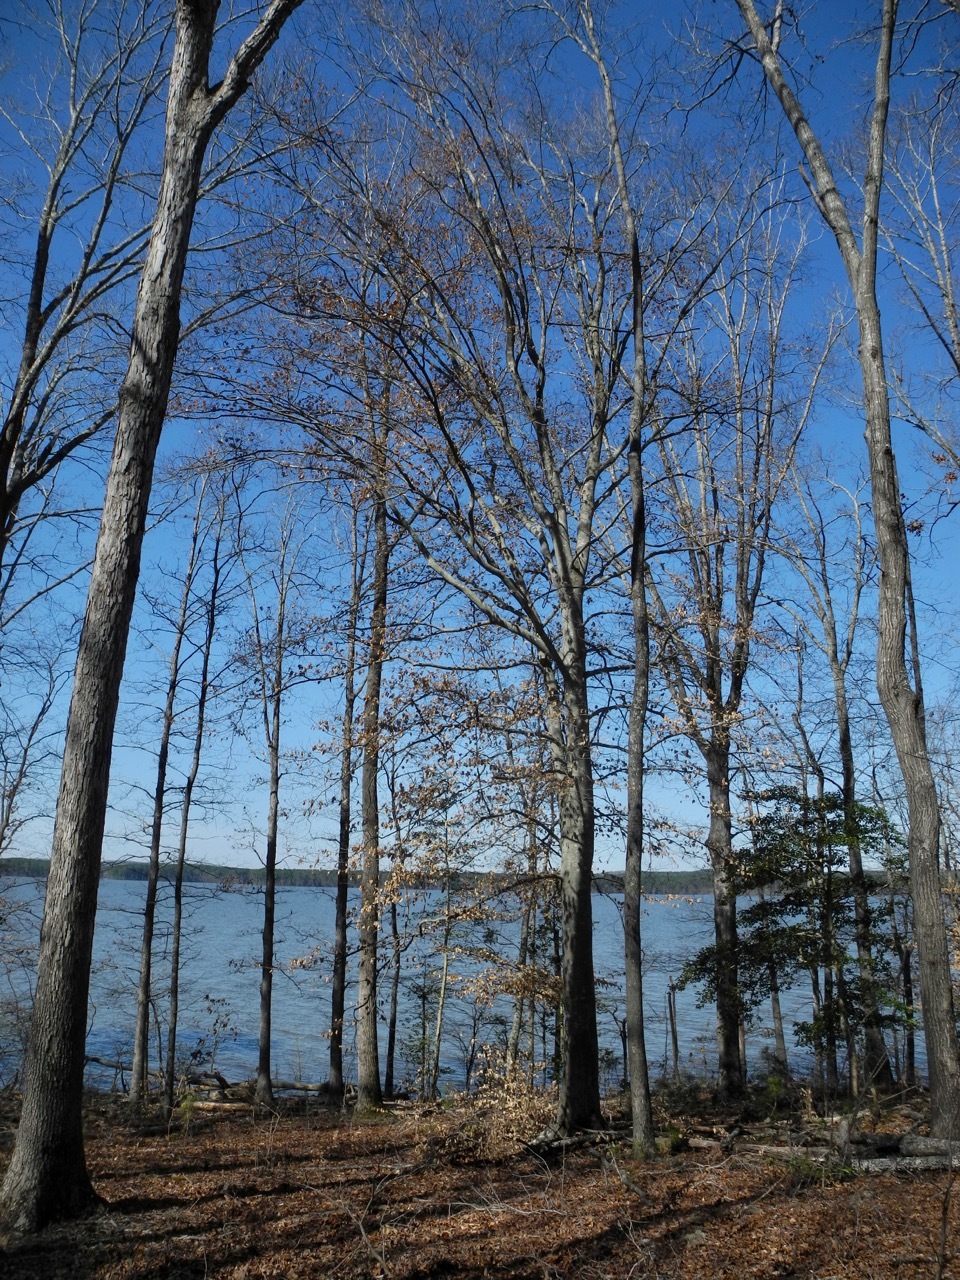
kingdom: Plantae
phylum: Tracheophyta
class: Magnoliopsida
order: Fagales
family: Fagaceae
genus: Fagus
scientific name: Fagus grandifolia
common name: American beech
